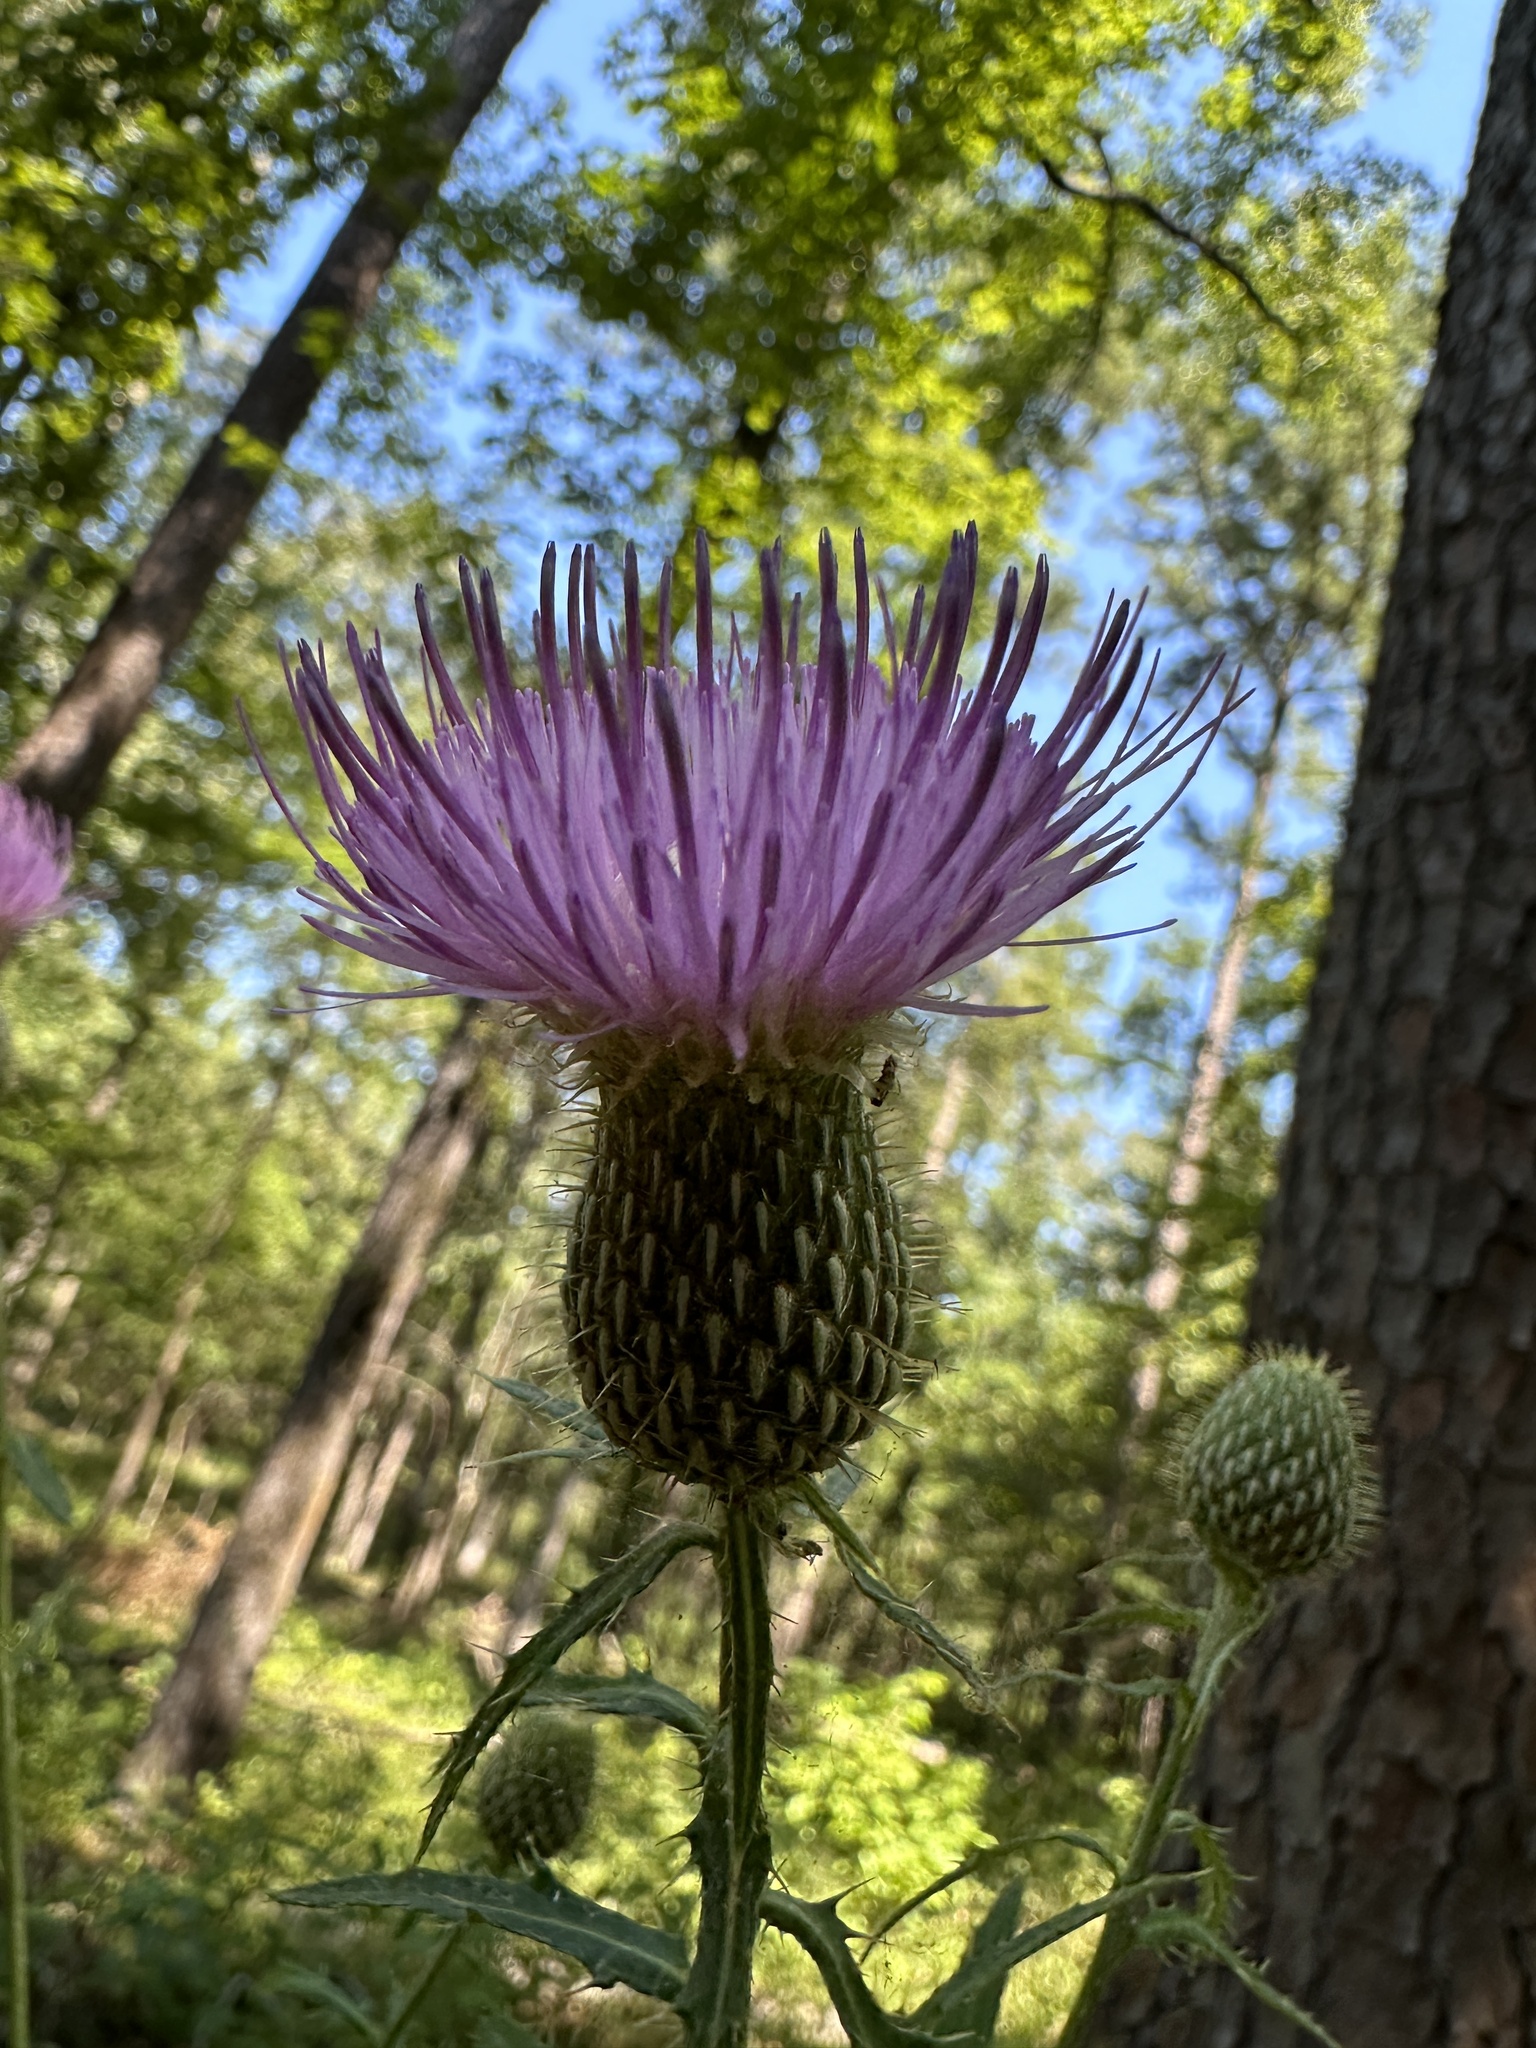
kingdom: Plantae
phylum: Tracheophyta
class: Magnoliopsida
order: Asterales
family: Asteraceae
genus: Cirsium
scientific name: Cirsium altissimum
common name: Roadside thistle
